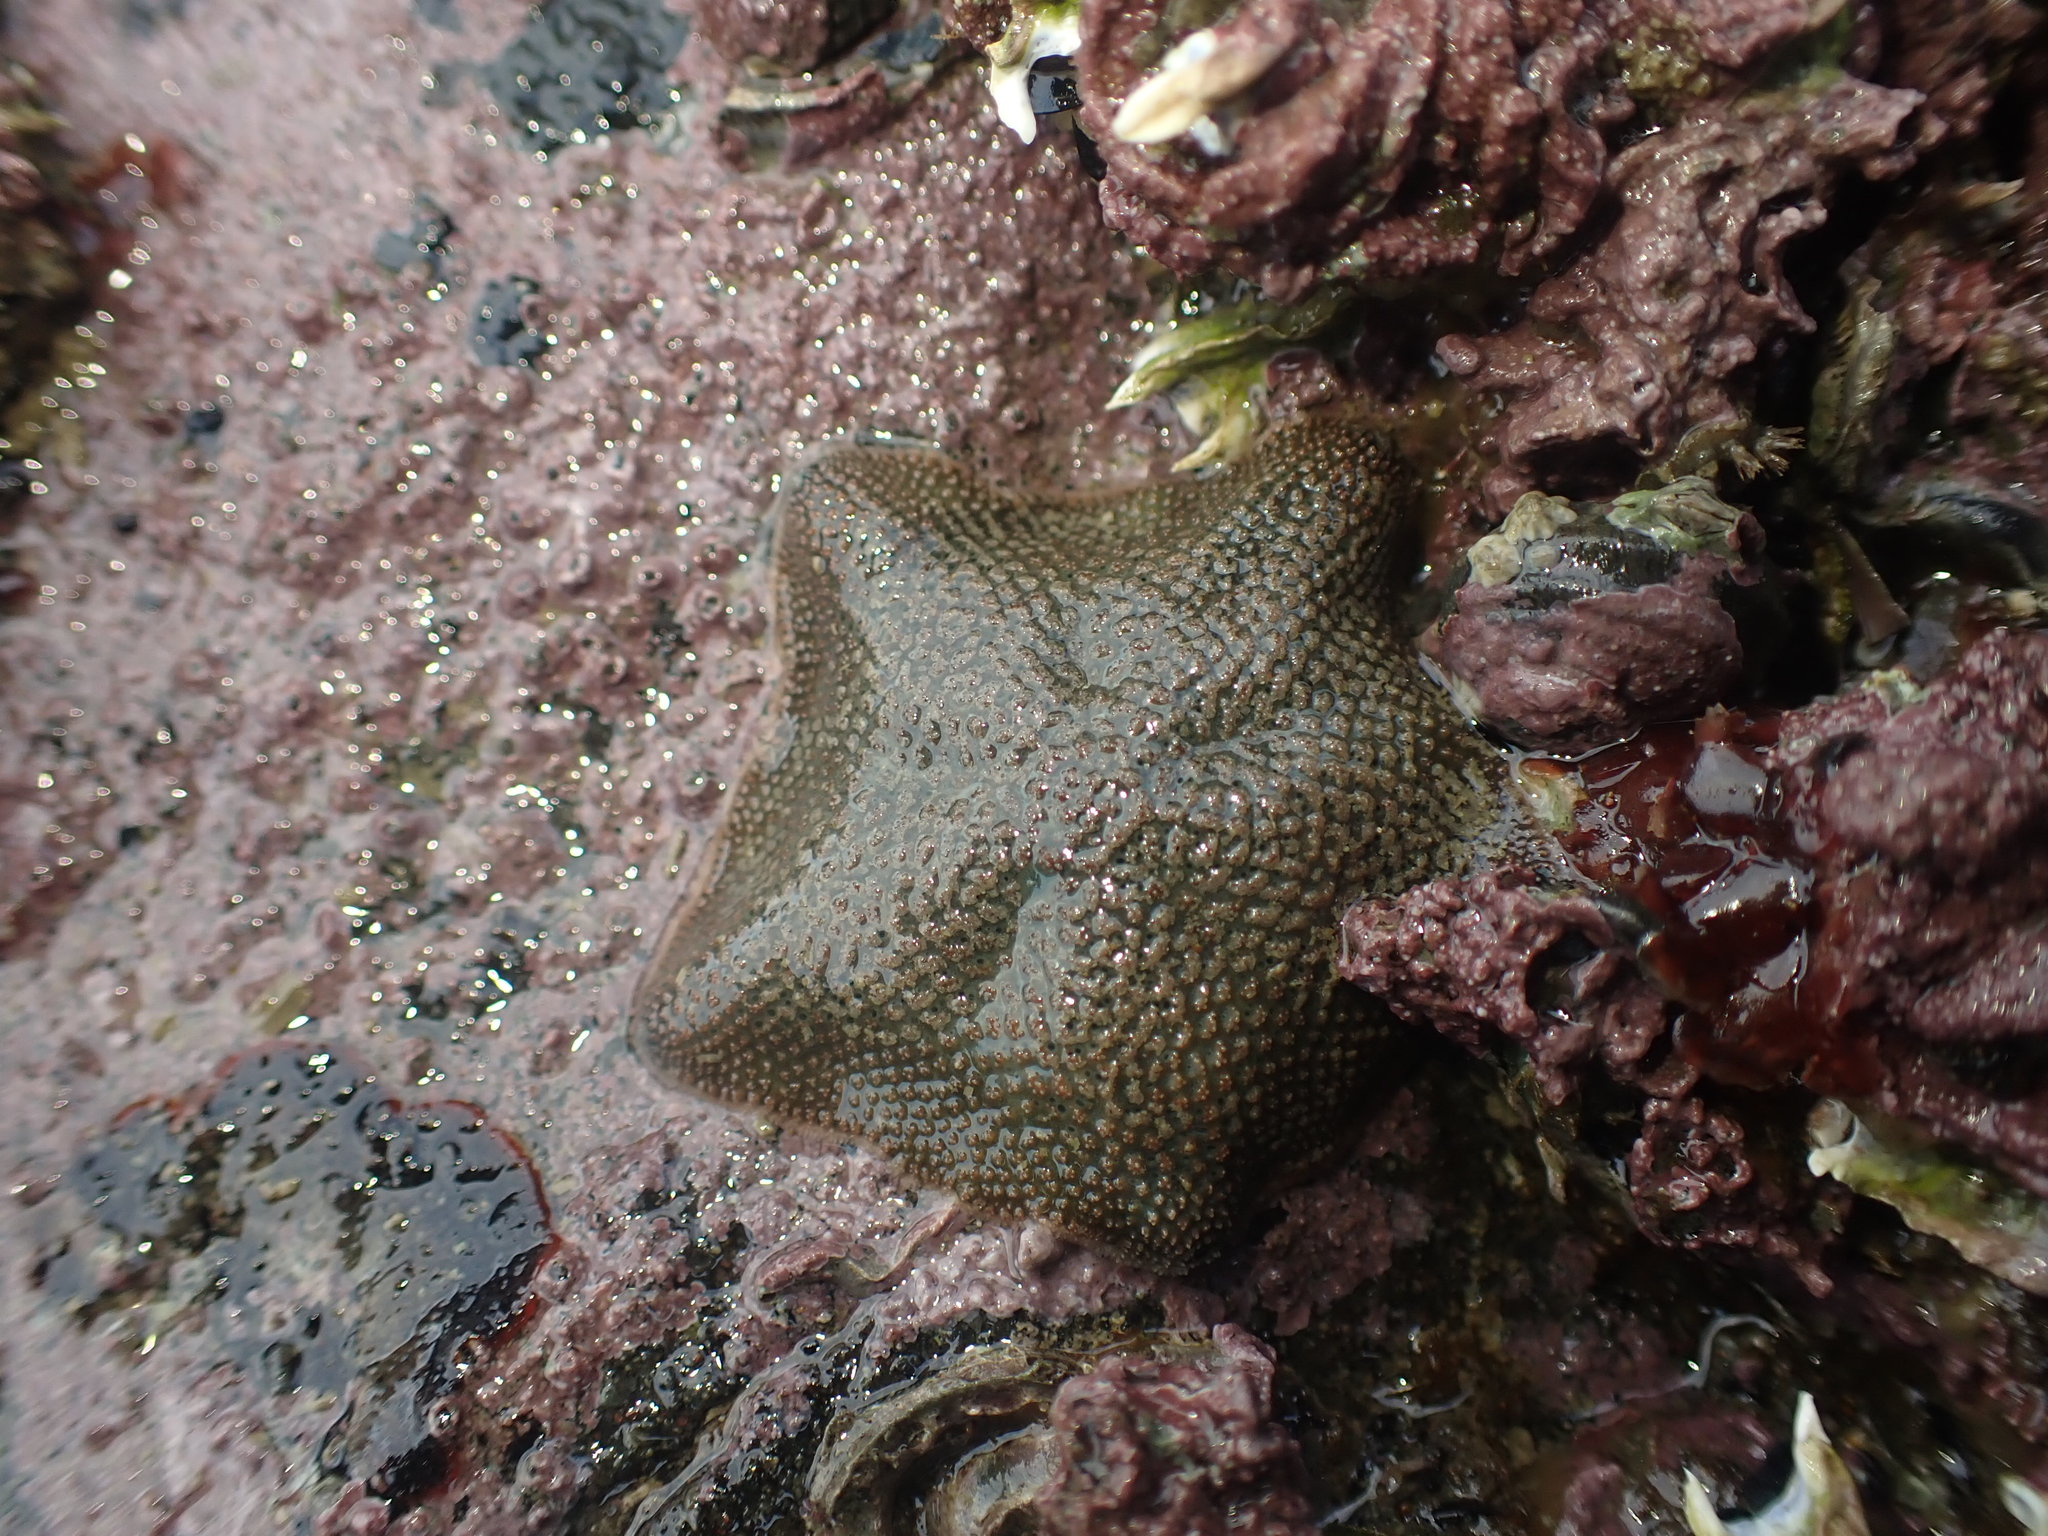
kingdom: Animalia
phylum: Echinodermata
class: Asteroidea
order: Valvatida
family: Asterinidae
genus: Patiriella
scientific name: Patiriella regularis
